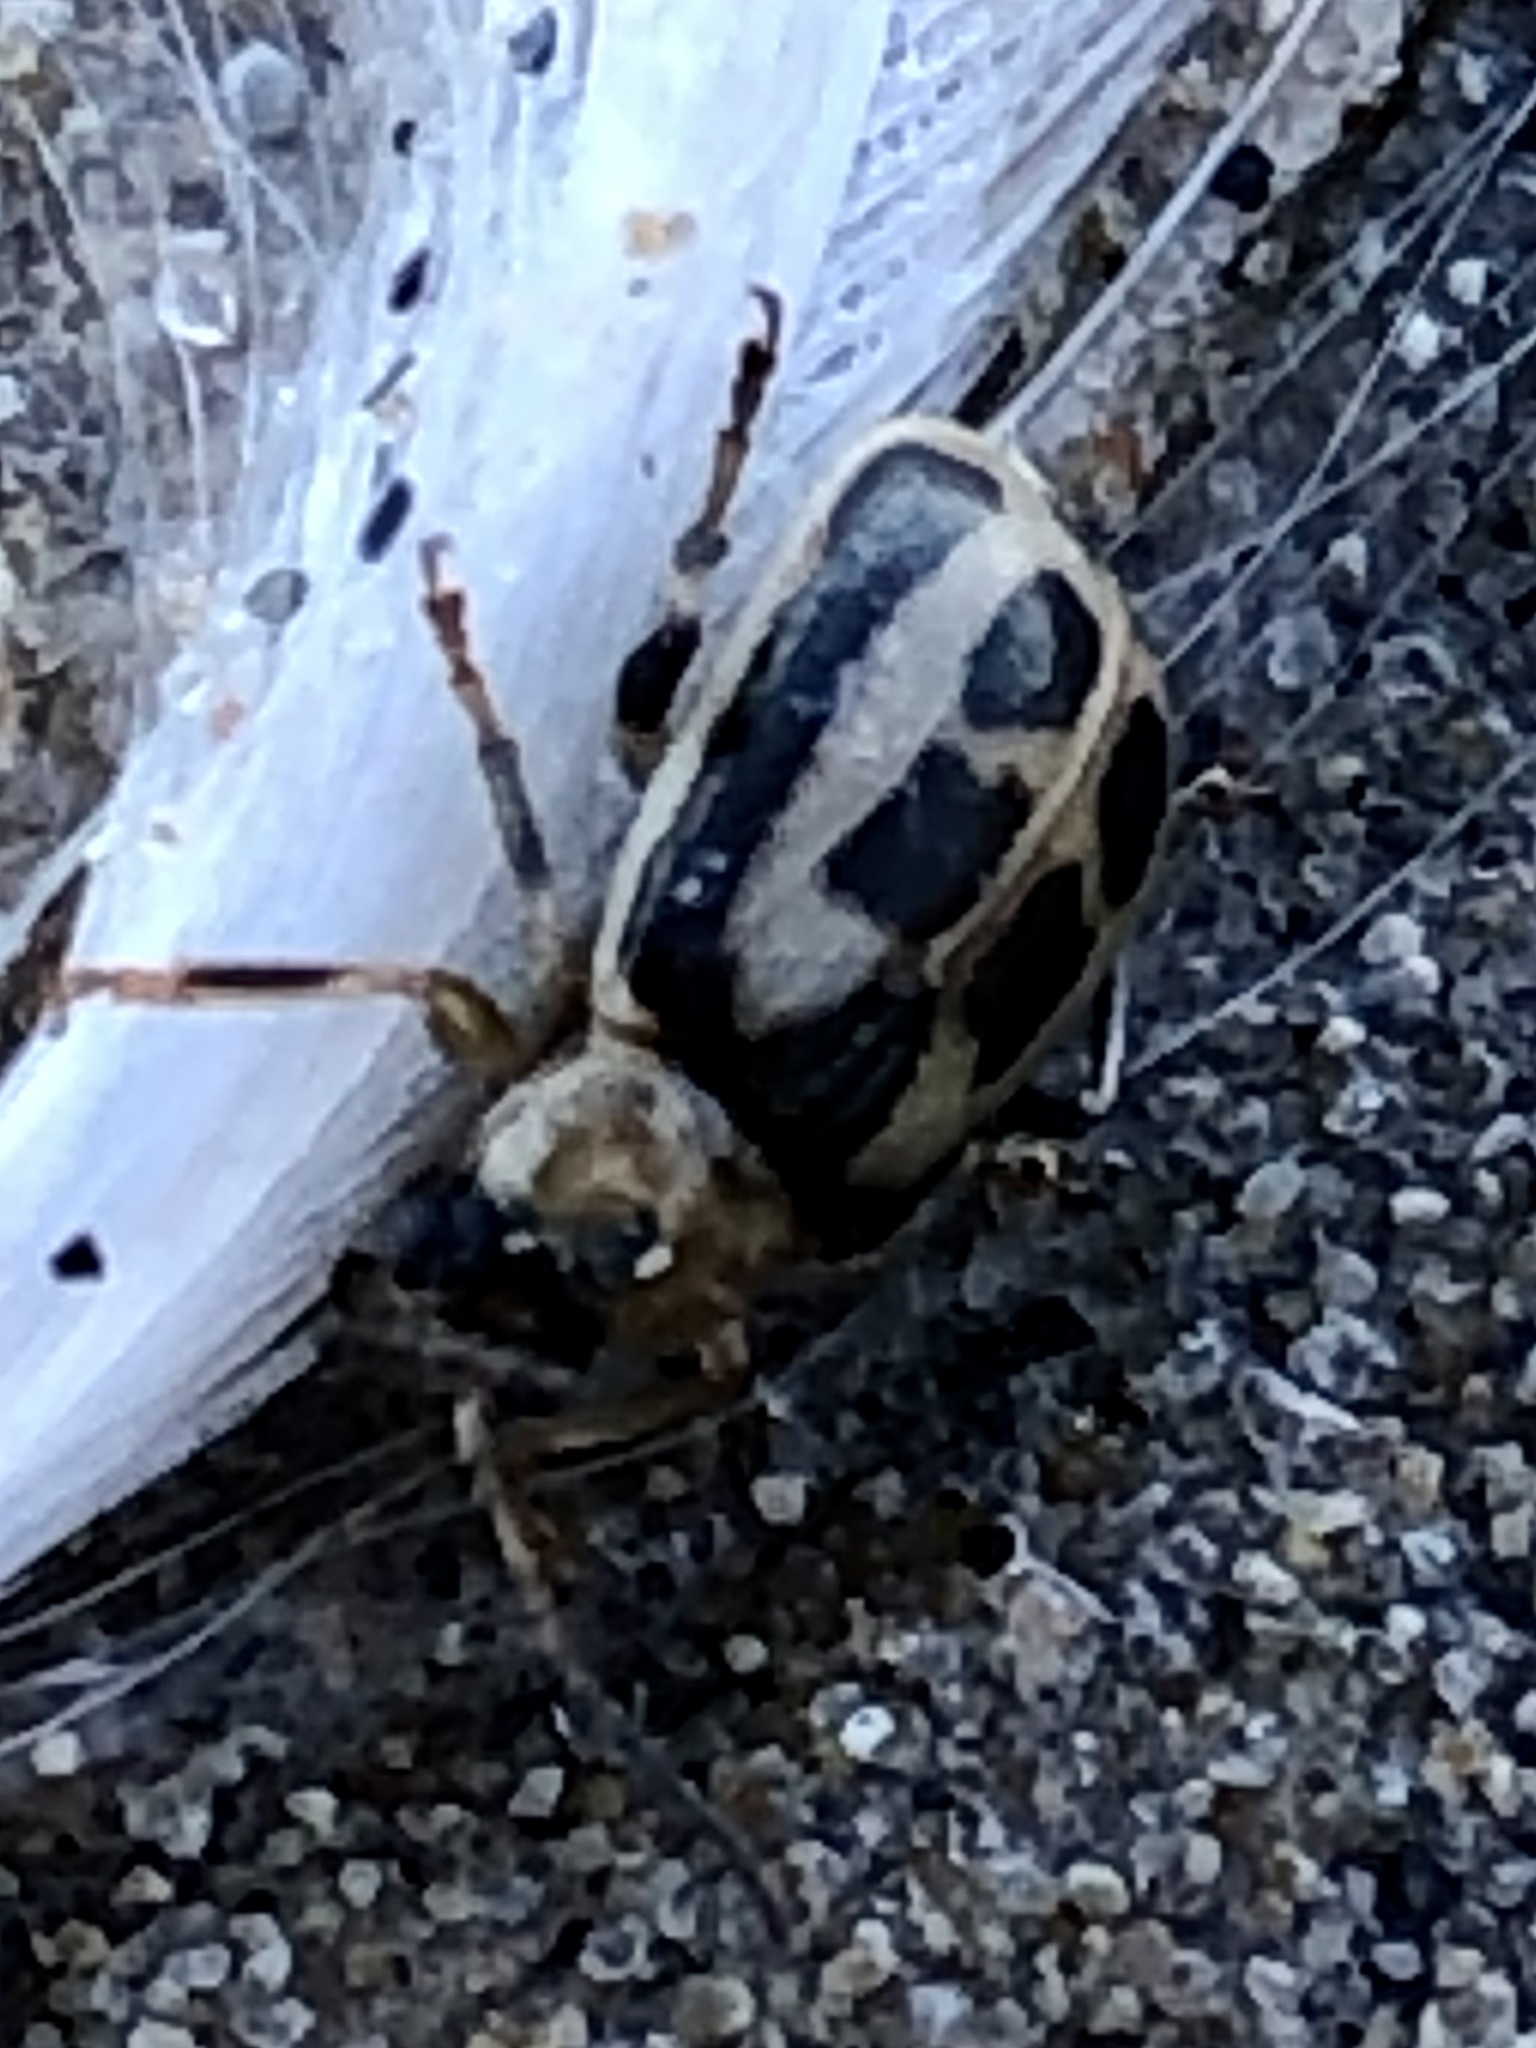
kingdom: Animalia
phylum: Arthropoda
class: Insecta
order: Coleoptera
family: Chrysomelidae
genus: Cerotoma
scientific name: Cerotoma trifurcata
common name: Bean leaf beetle
